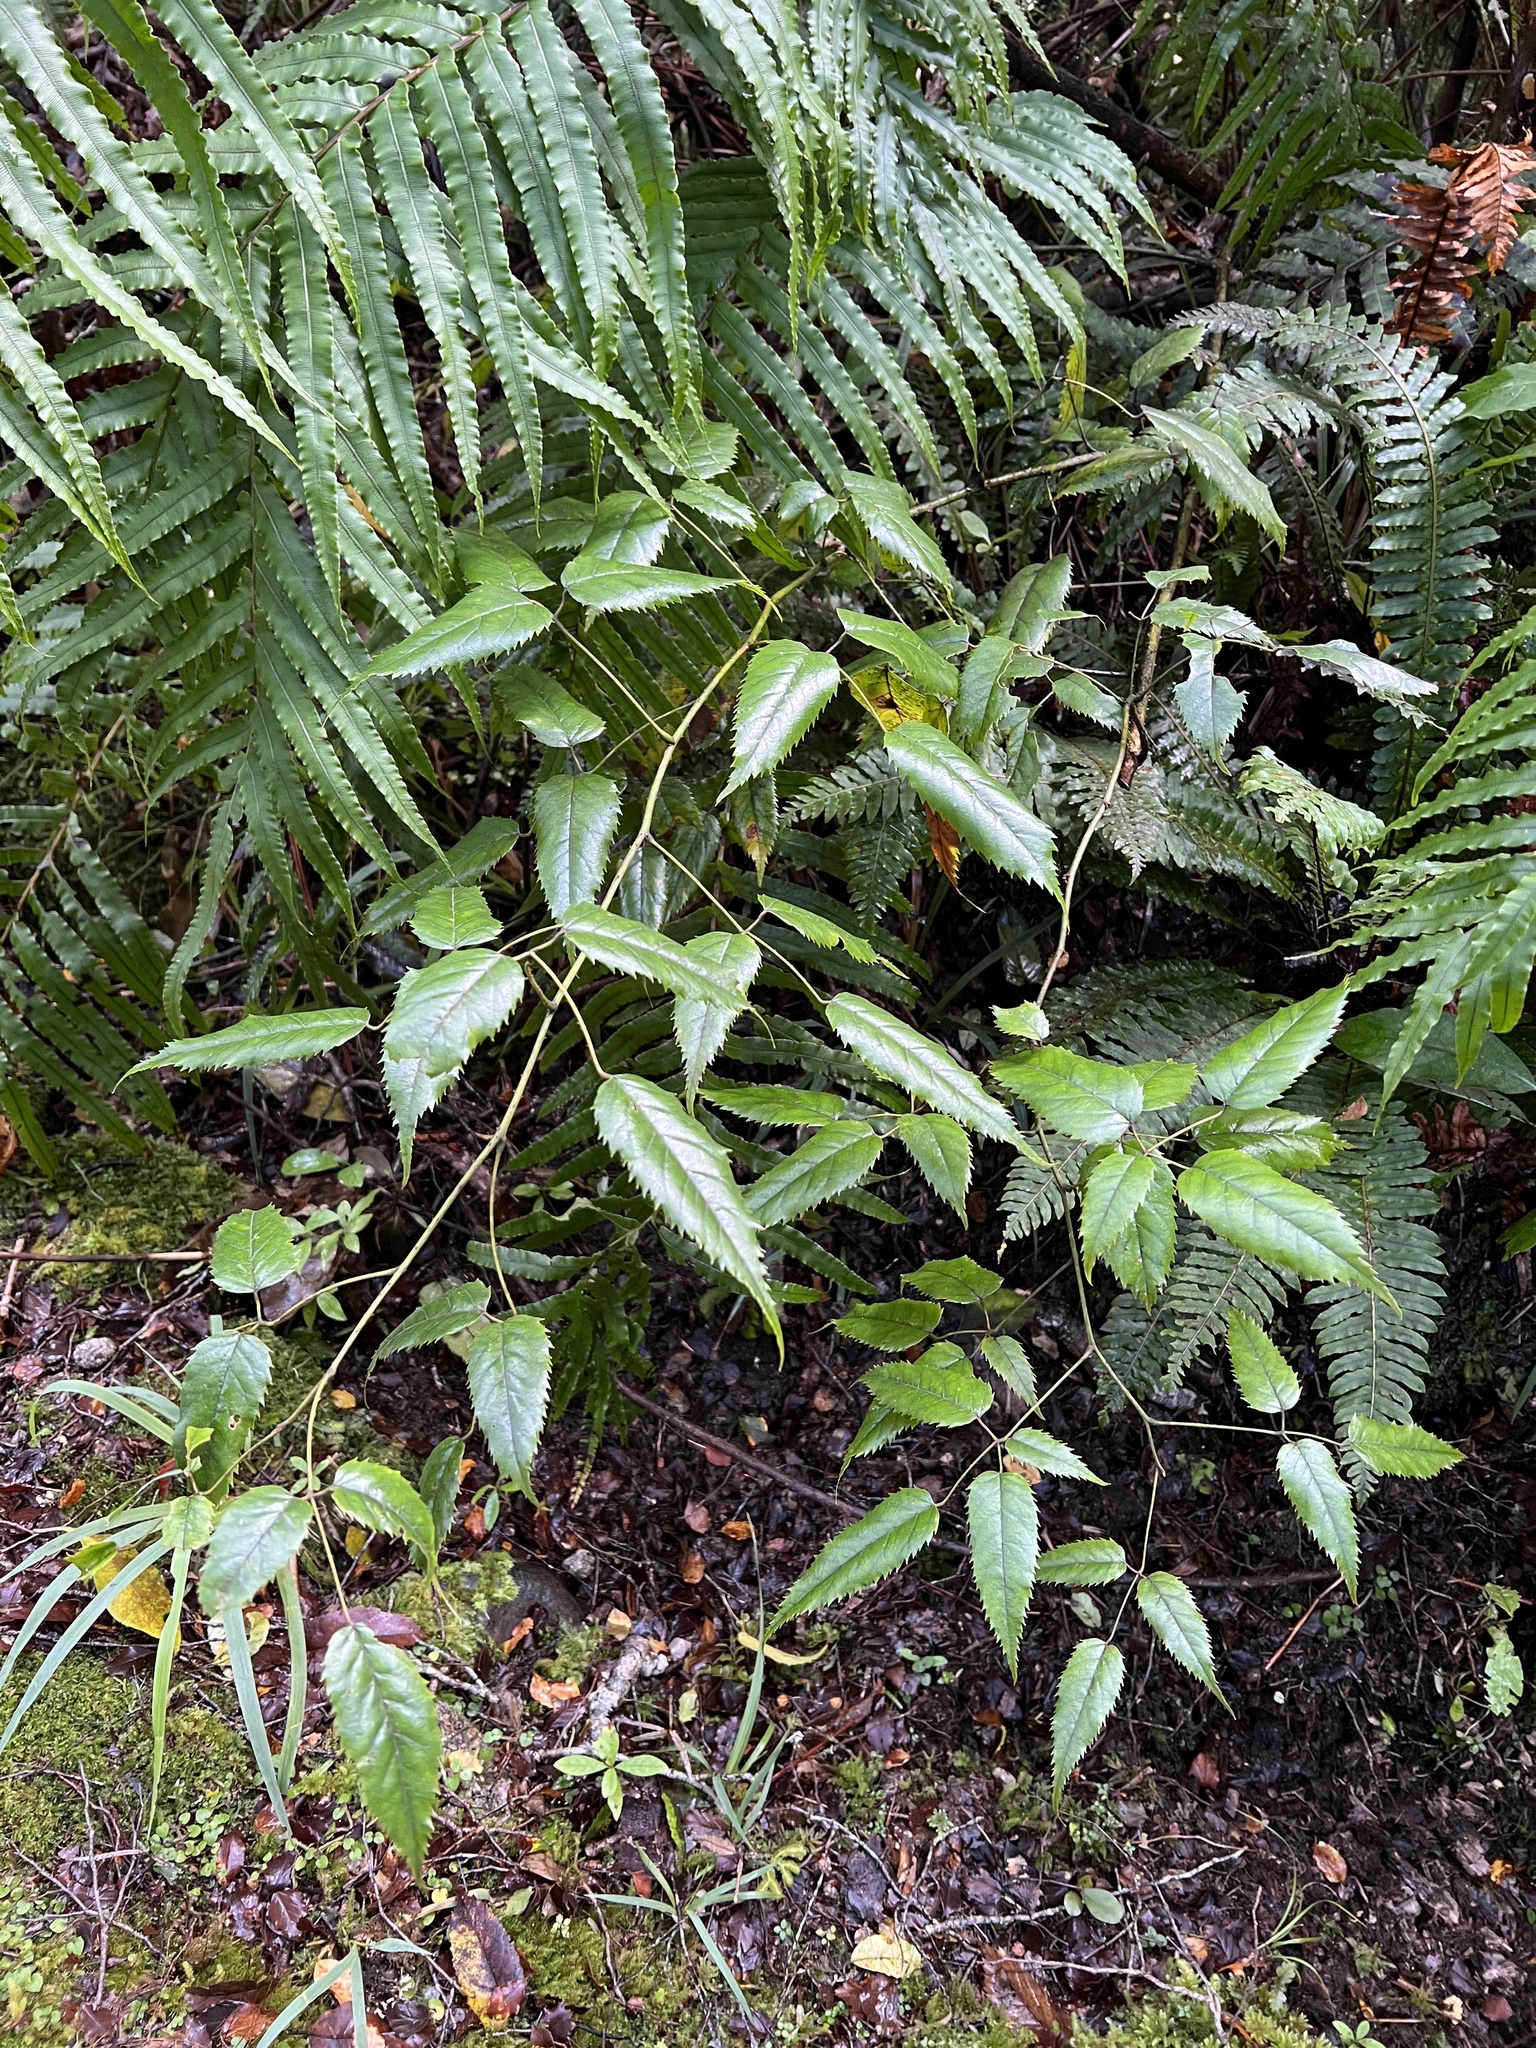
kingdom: Plantae
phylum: Tracheophyta
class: Magnoliopsida
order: Rosales
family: Rosaceae
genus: Rubus
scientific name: Rubus cissoides
